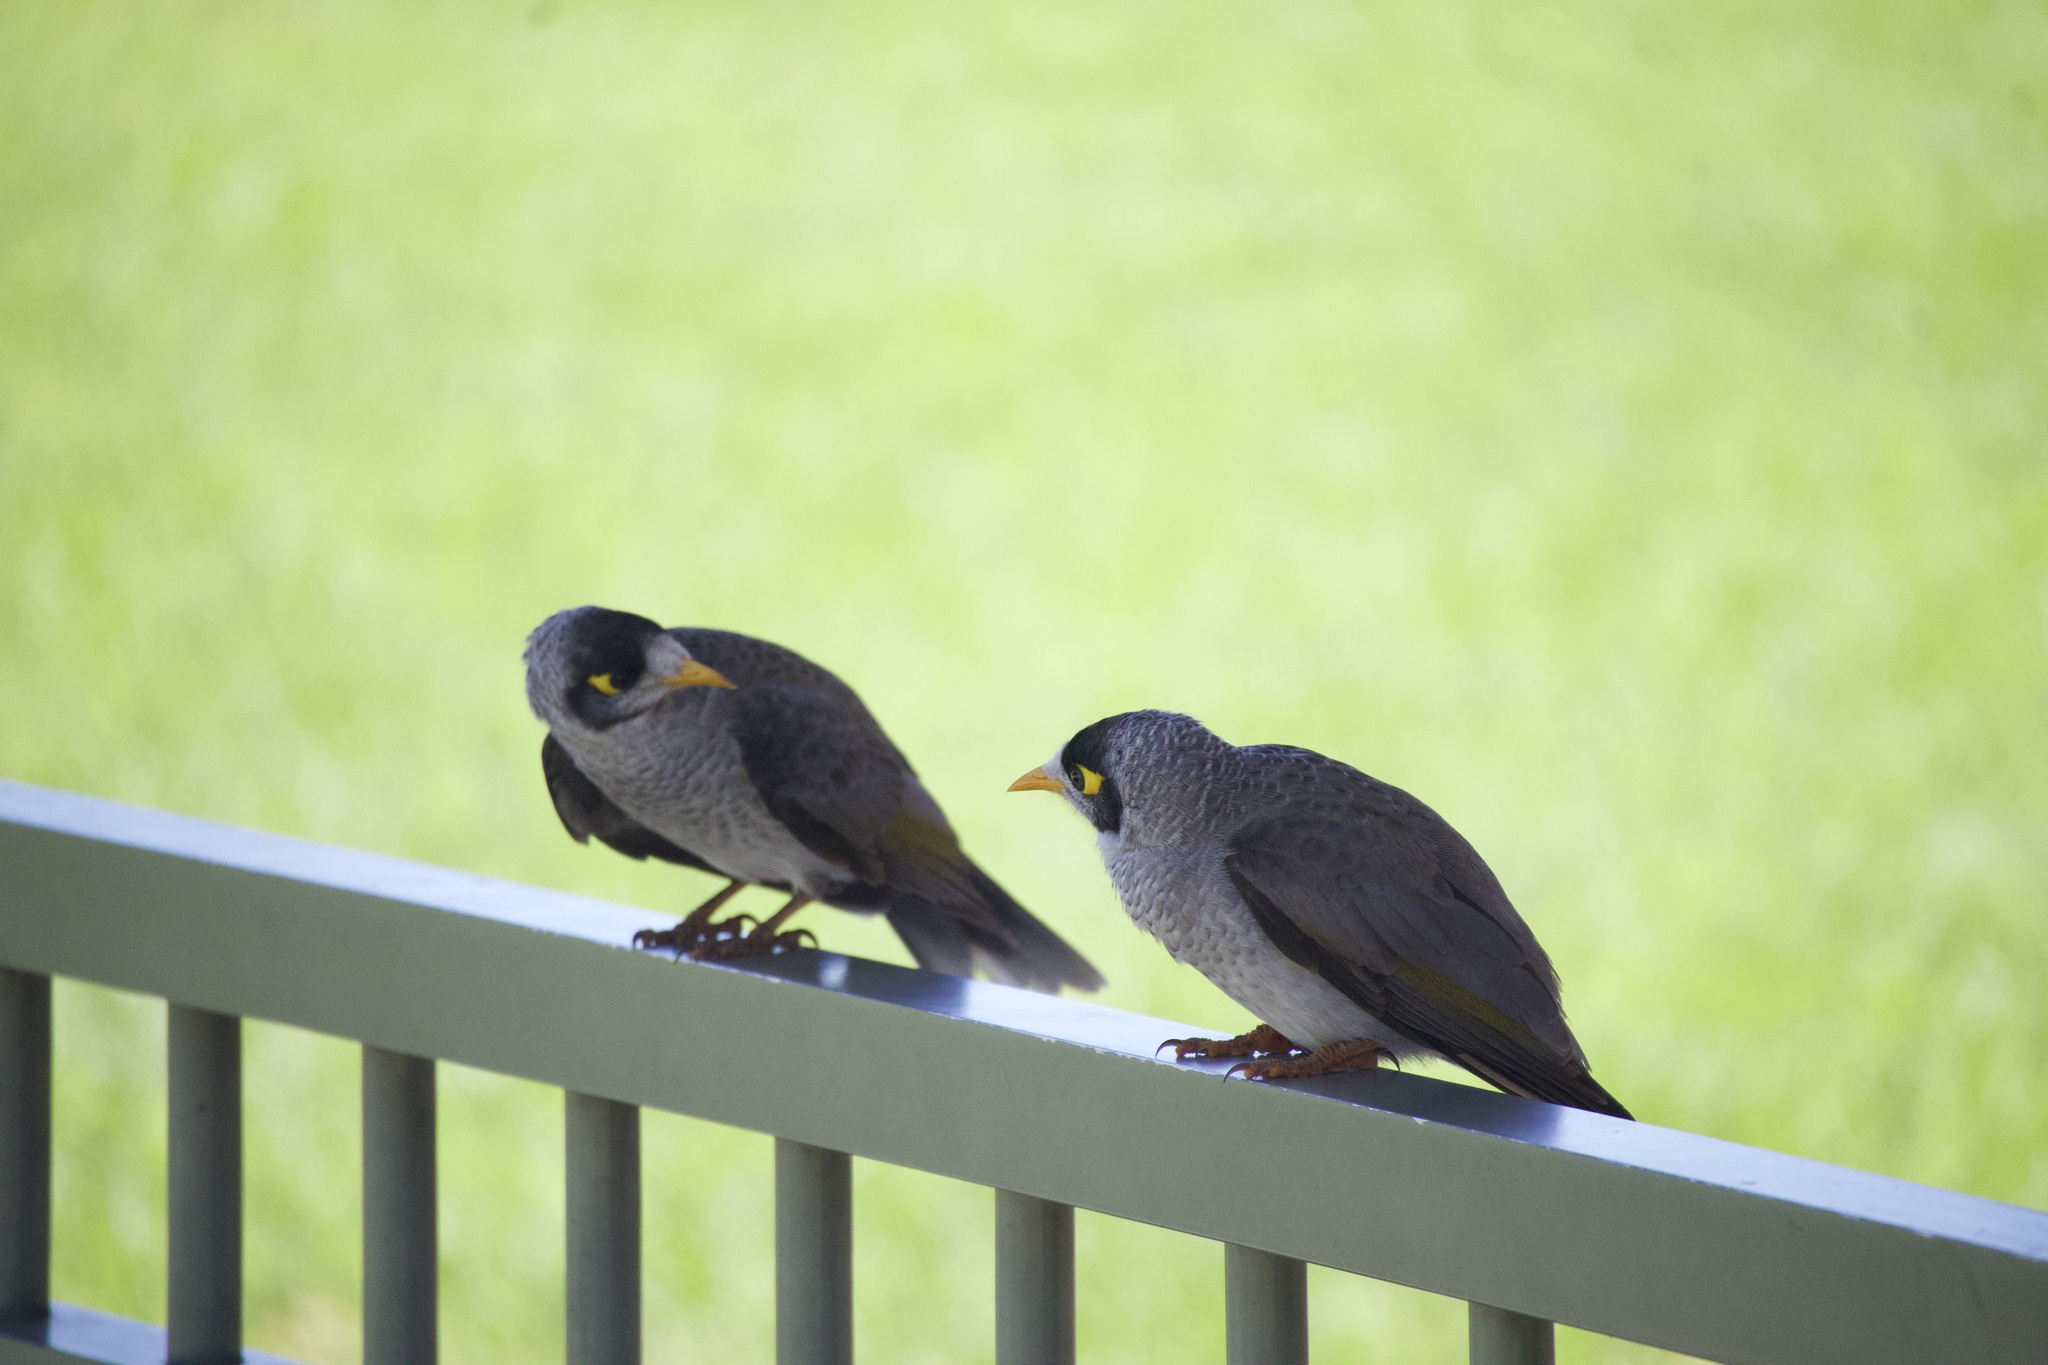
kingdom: Animalia
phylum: Chordata
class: Aves
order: Passeriformes
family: Meliphagidae
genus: Manorina
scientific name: Manorina melanocephala
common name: Noisy miner
